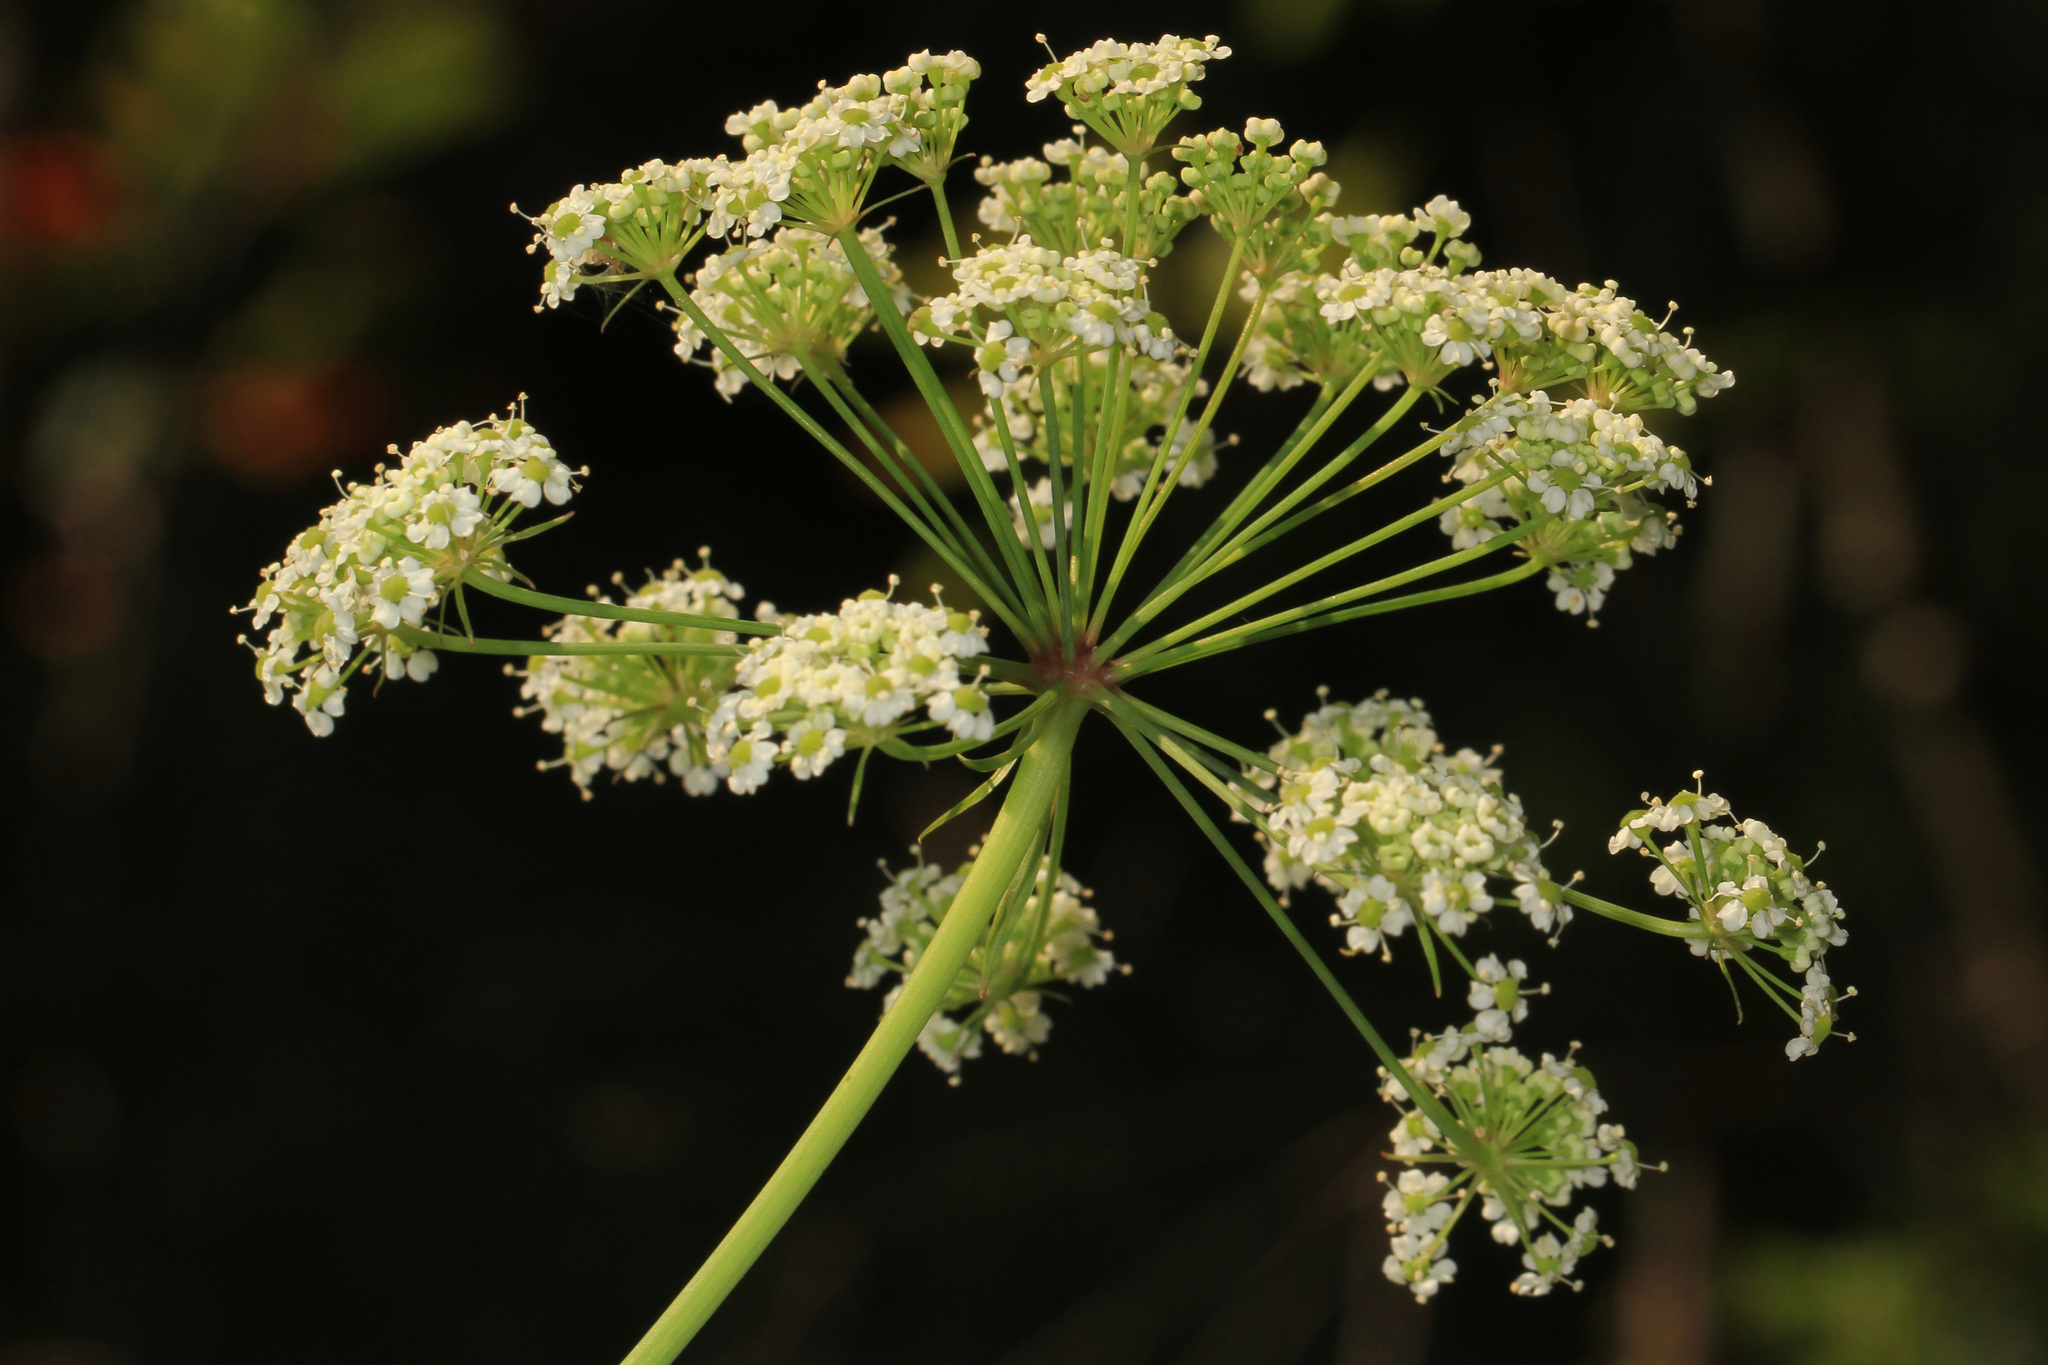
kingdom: Plantae
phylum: Tracheophyta
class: Magnoliopsida
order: Apiales
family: Apiaceae
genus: Oxypolis
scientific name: Oxypolis rigidior
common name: Cowbane
